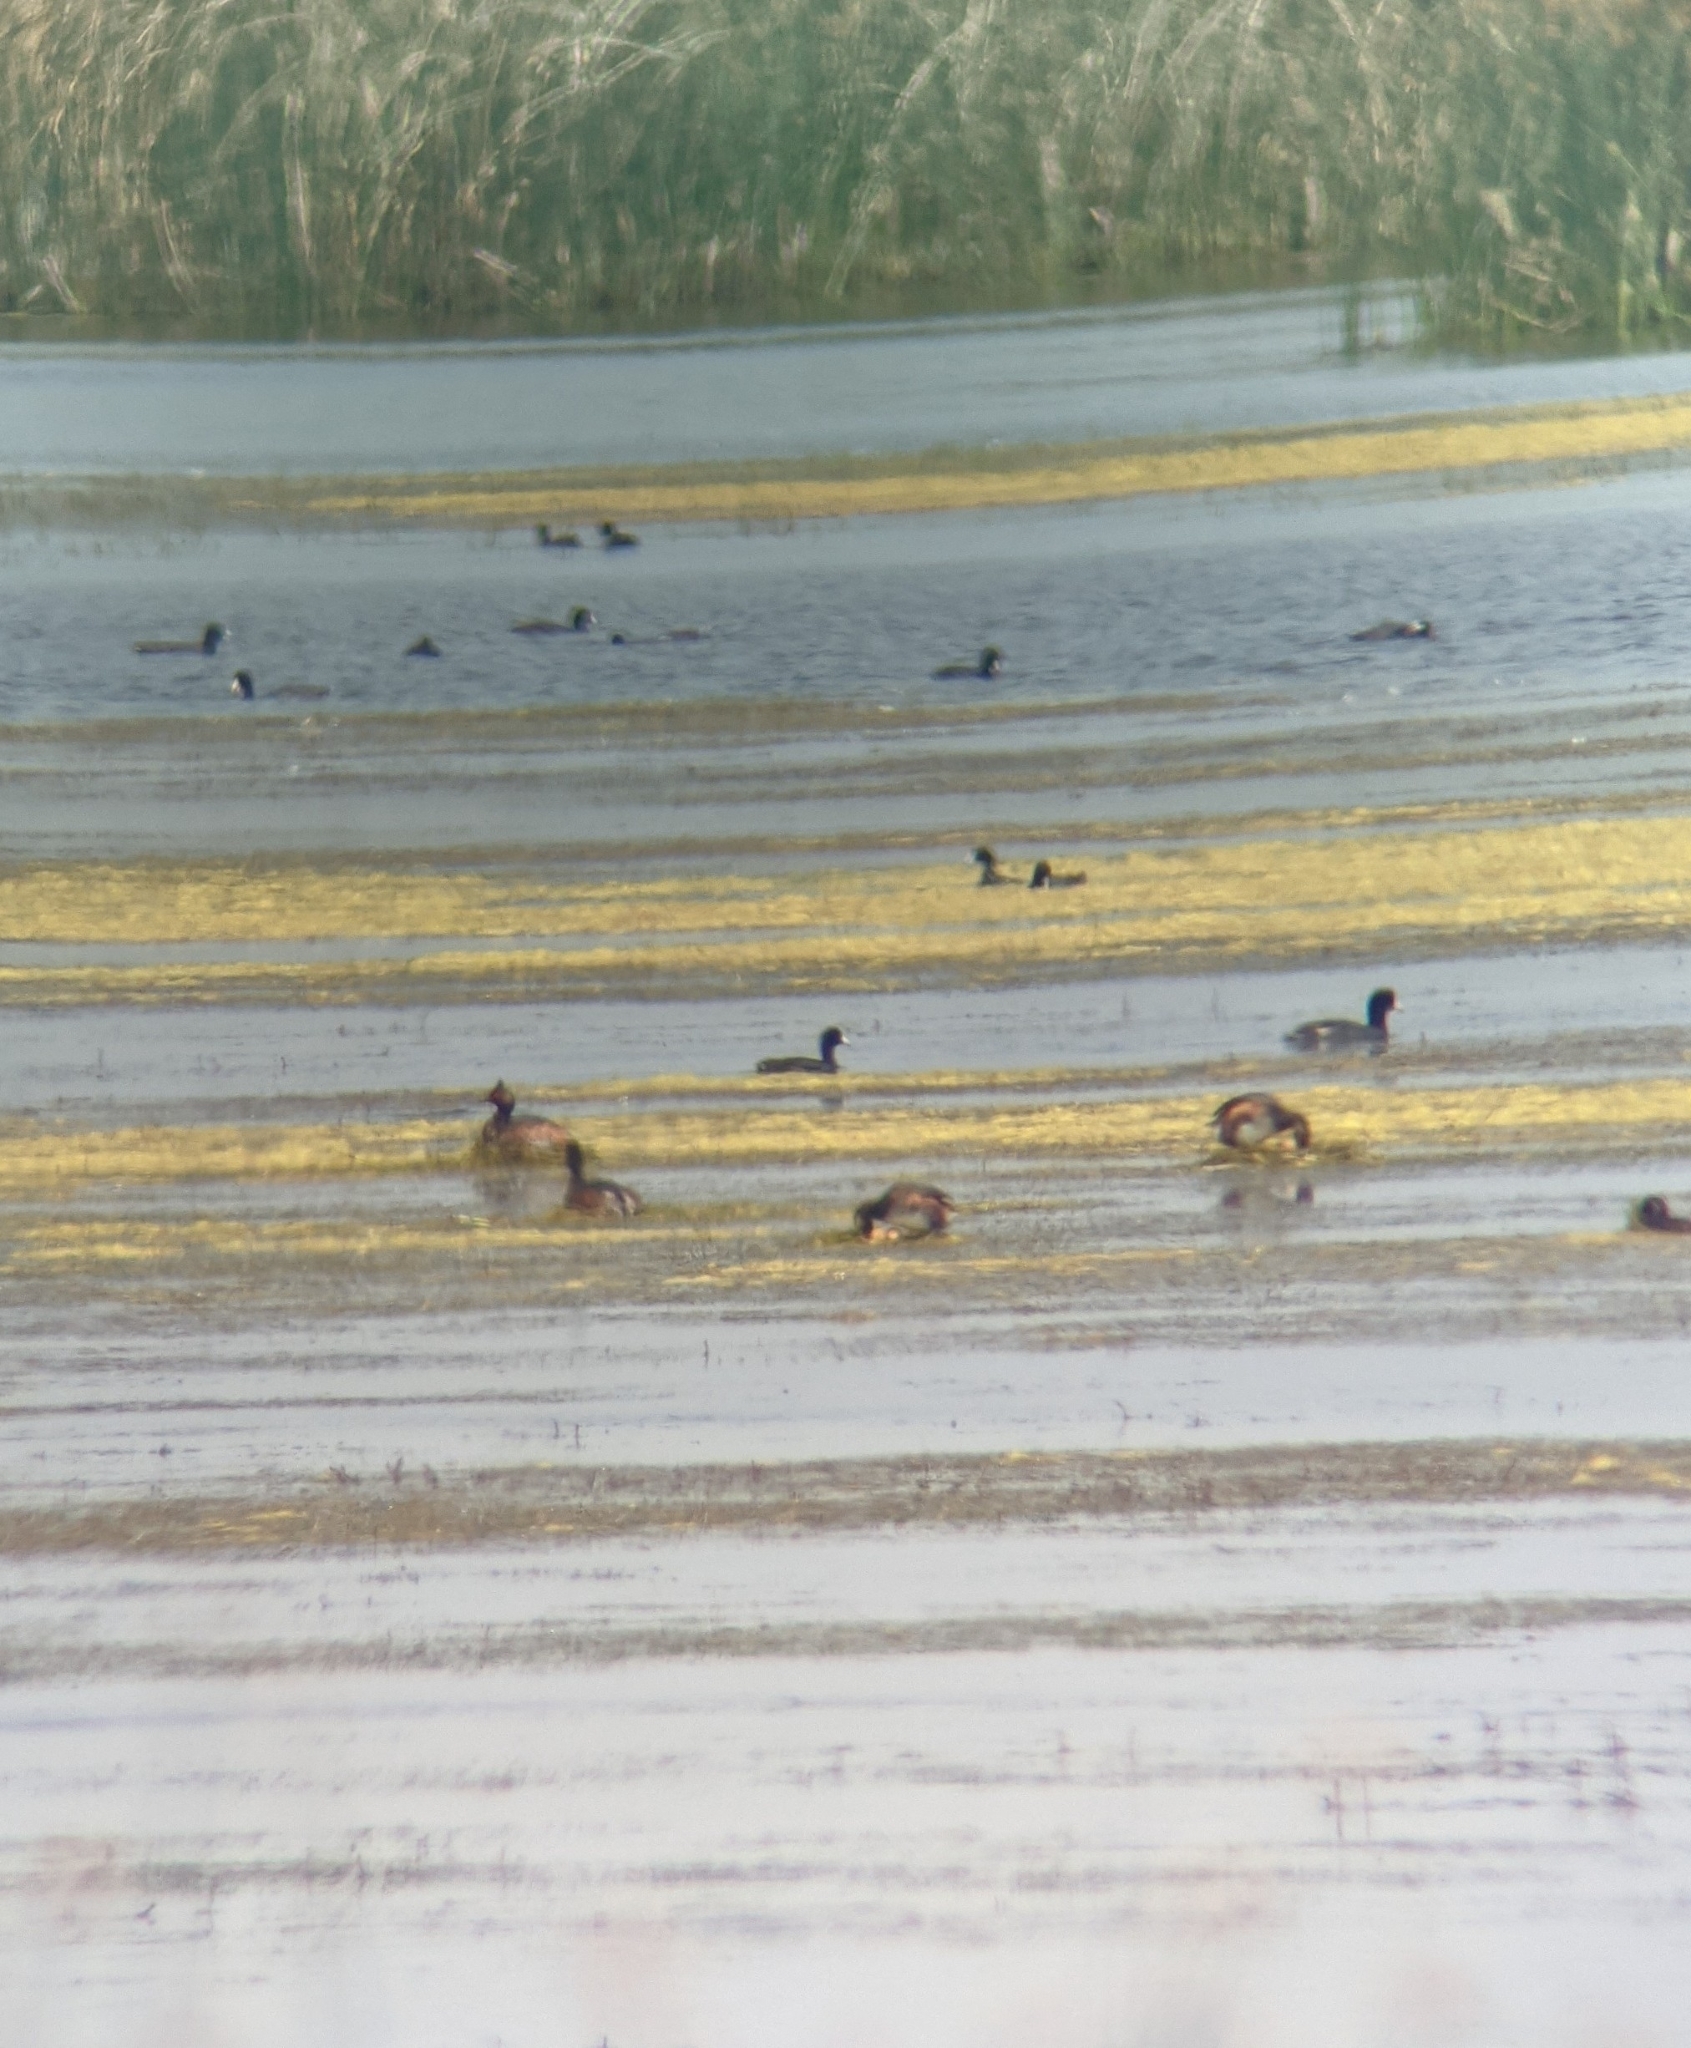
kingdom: Animalia
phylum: Chordata
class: Aves
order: Podicipediformes
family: Podicipedidae
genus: Podiceps
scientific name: Podiceps nigricollis
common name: Black-necked grebe
